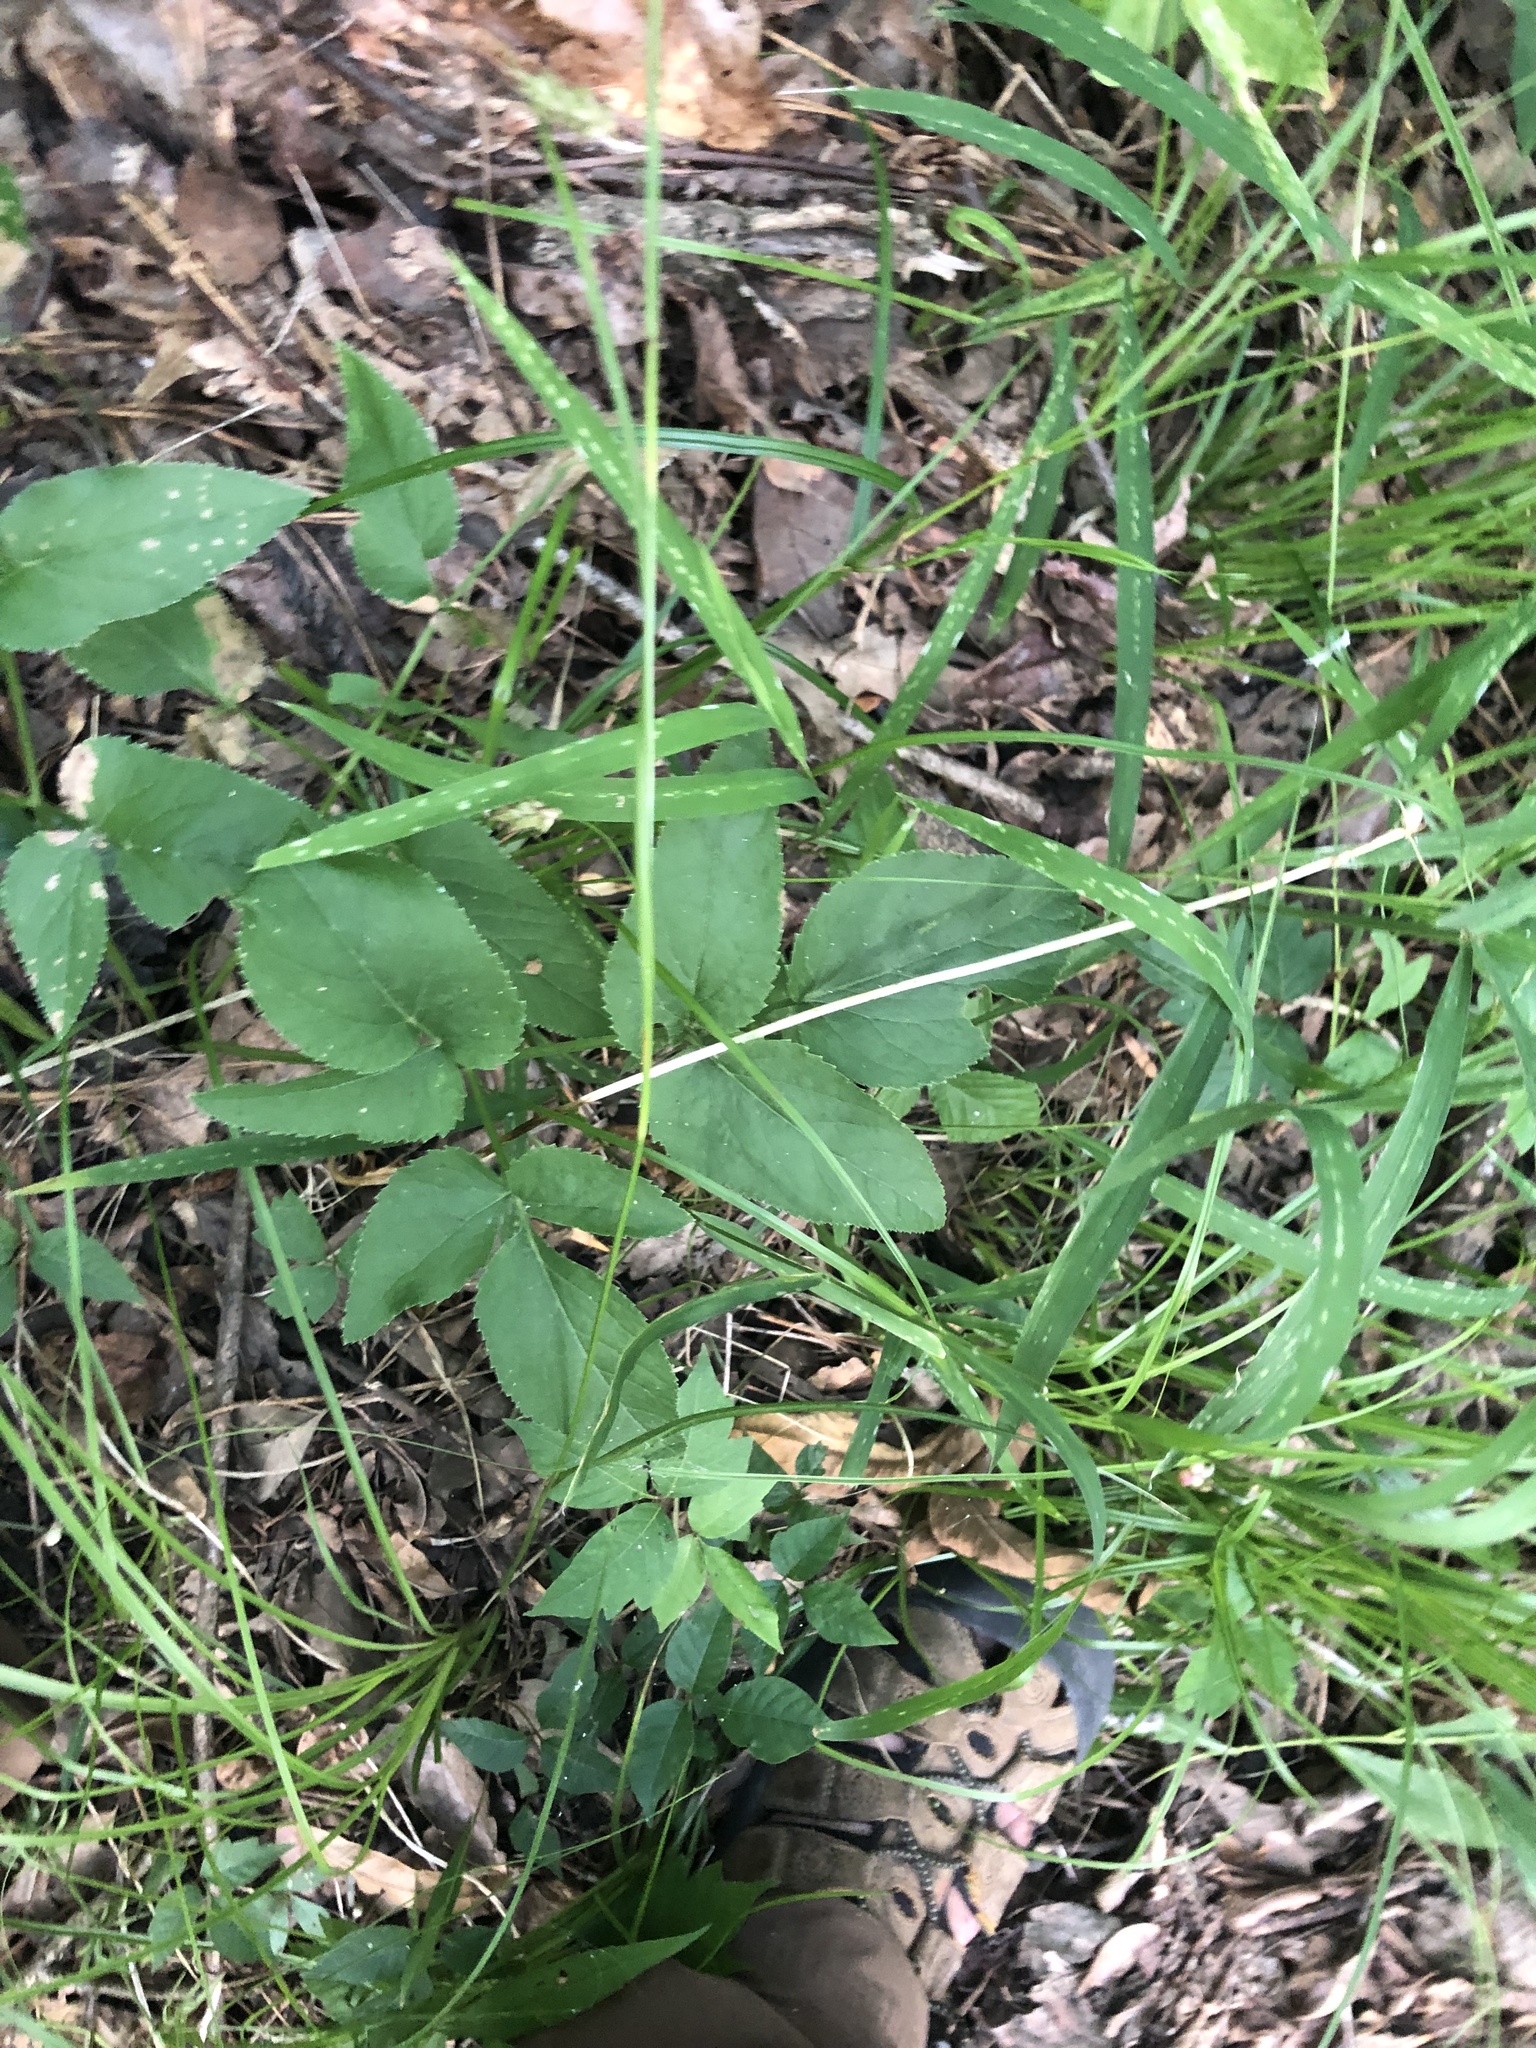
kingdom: Plantae
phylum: Tracheophyta
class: Magnoliopsida
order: Apiales
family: Apiaceae
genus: Zizia
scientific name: Zizia aurea
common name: Golden alexanders
